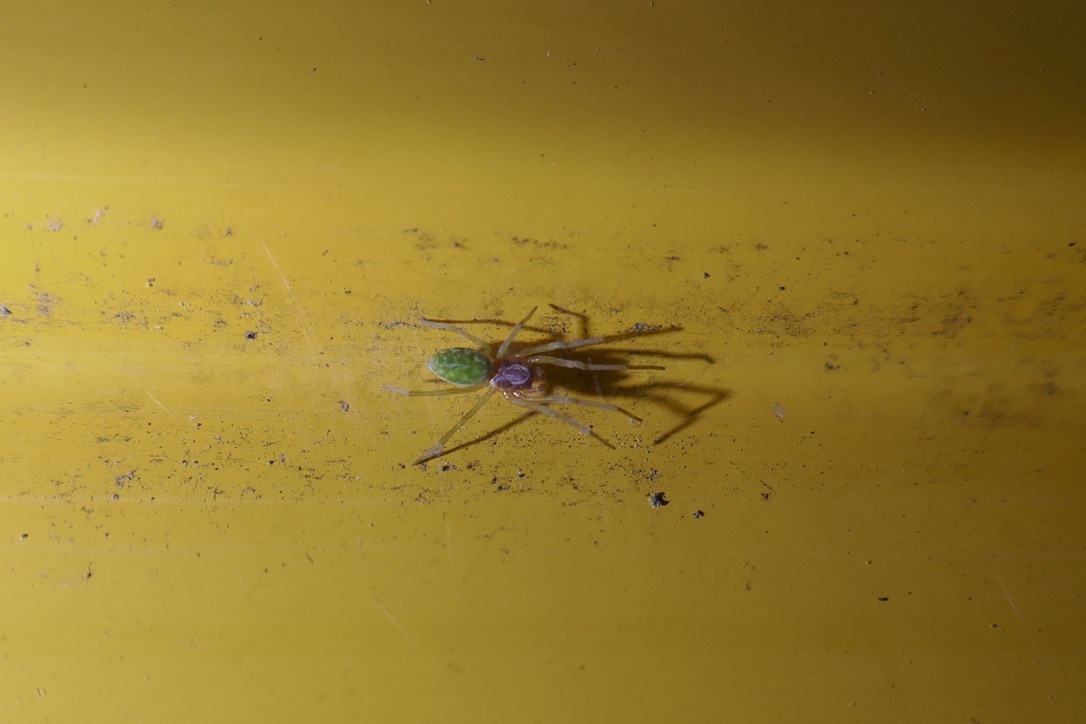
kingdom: Animalia
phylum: Arthropoda
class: Arachnida
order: Araneae
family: Dictynidae
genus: Nigma
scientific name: Nigma walckenaeri
